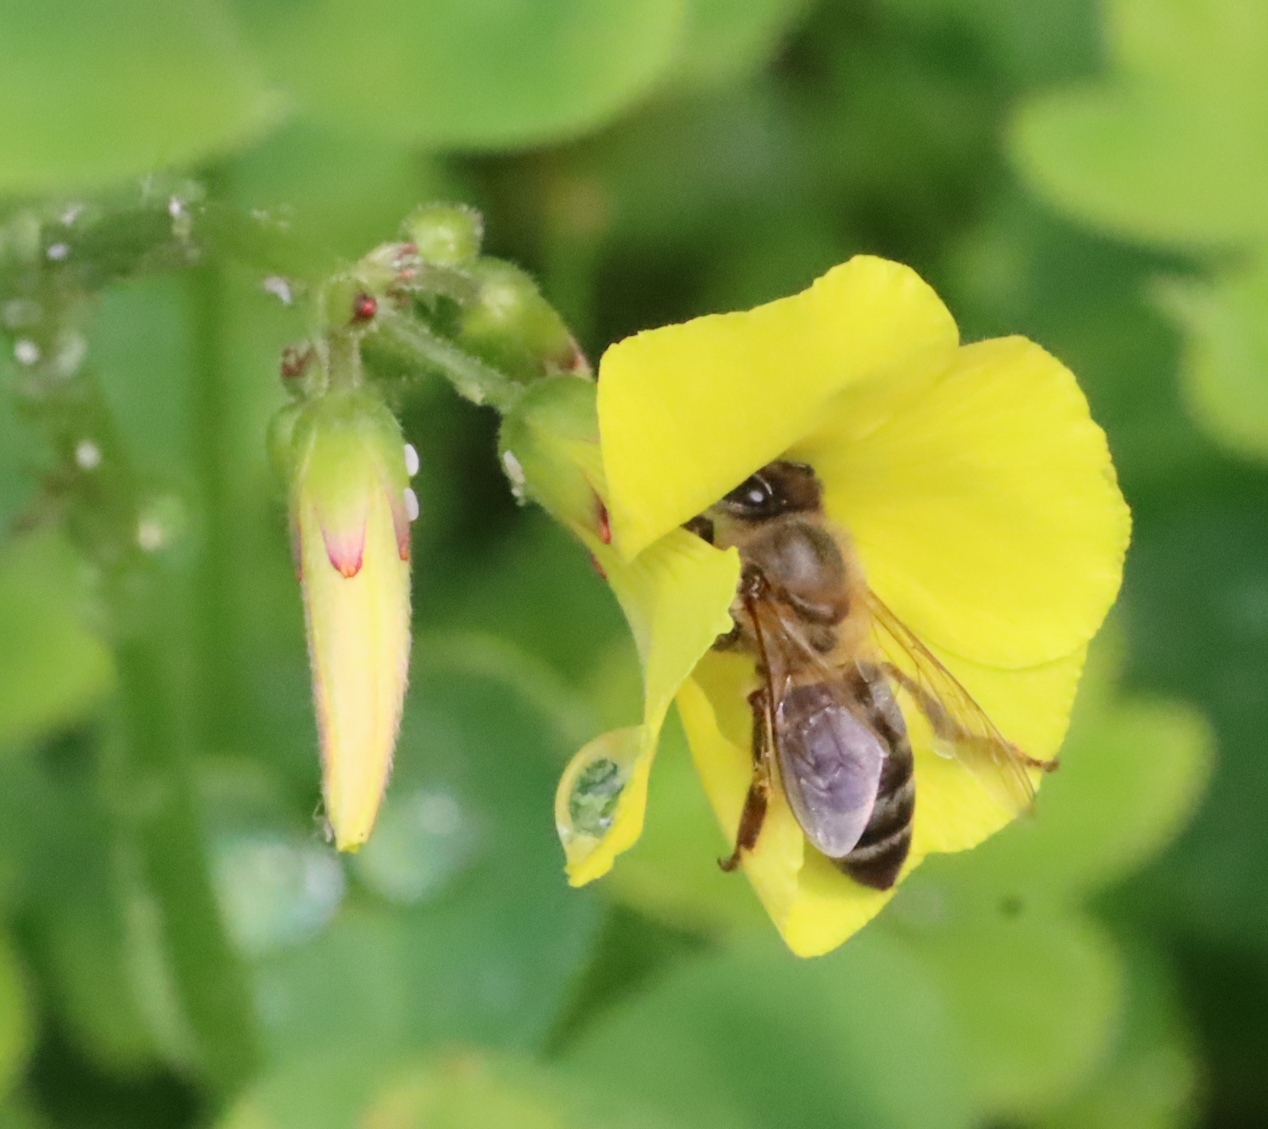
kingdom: Plantae
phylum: Tracheophyta
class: Magnoliopsida
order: Oxalidales
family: Oxalidaceae
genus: Oxalis
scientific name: Oxalis pes-caprae
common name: Bermuda-buttercup
